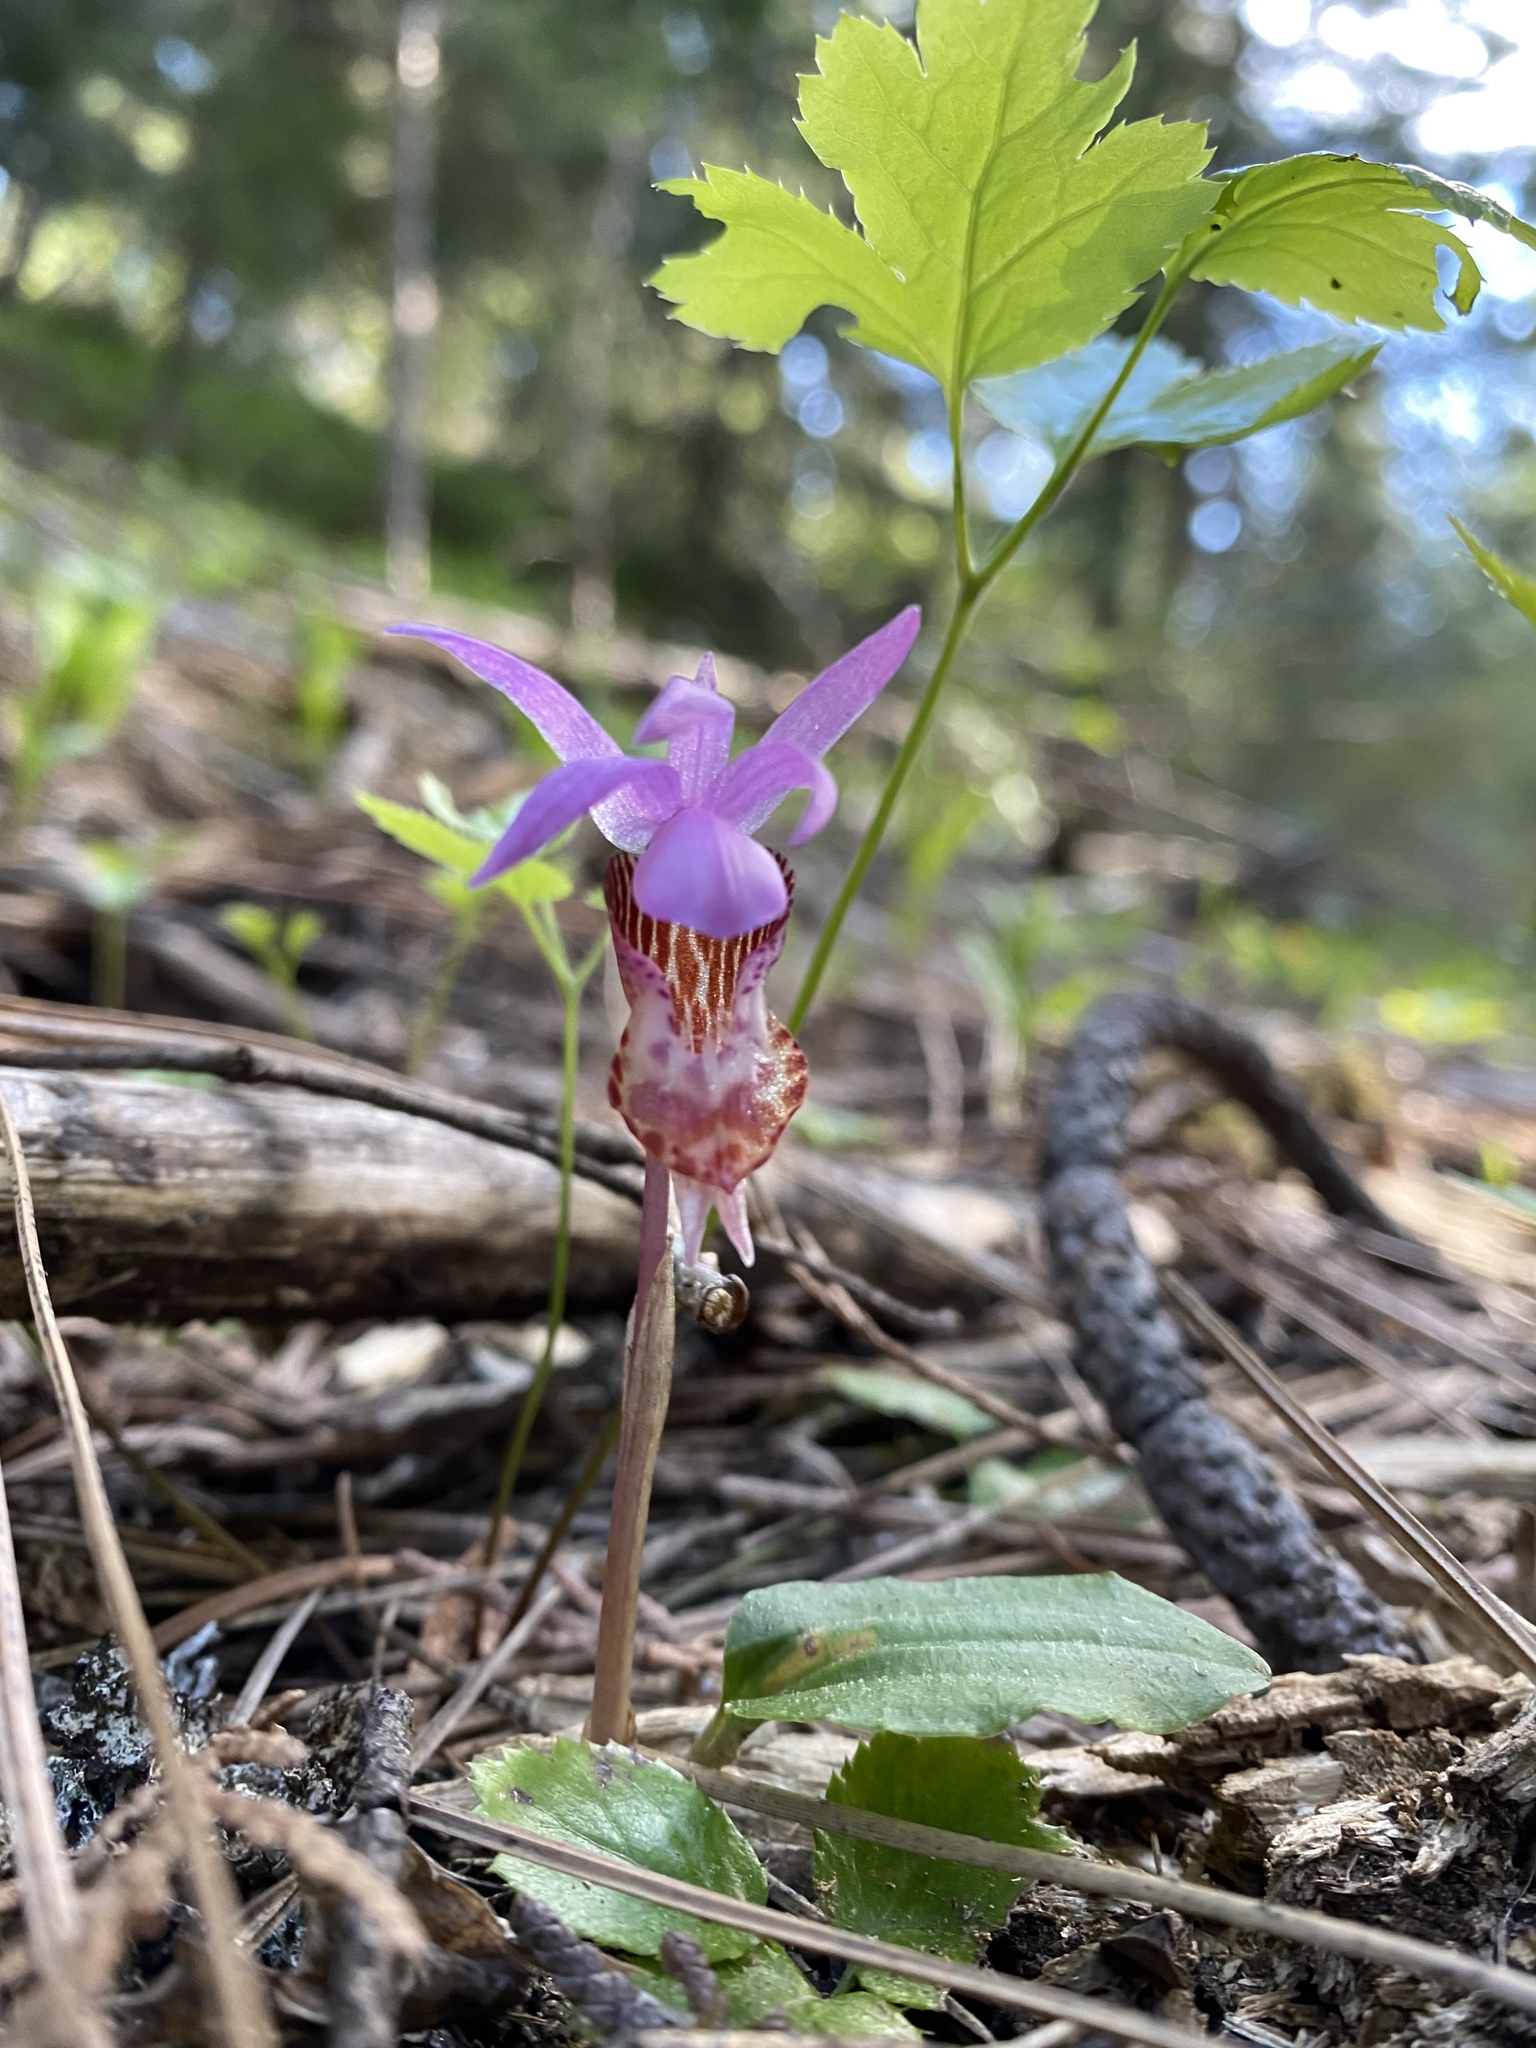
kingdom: Plantae
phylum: Tracheophyta
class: Liliopsida
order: Asparagales
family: Orchidaceae
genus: Calypso
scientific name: Calypso bulbosa
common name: Calypso
